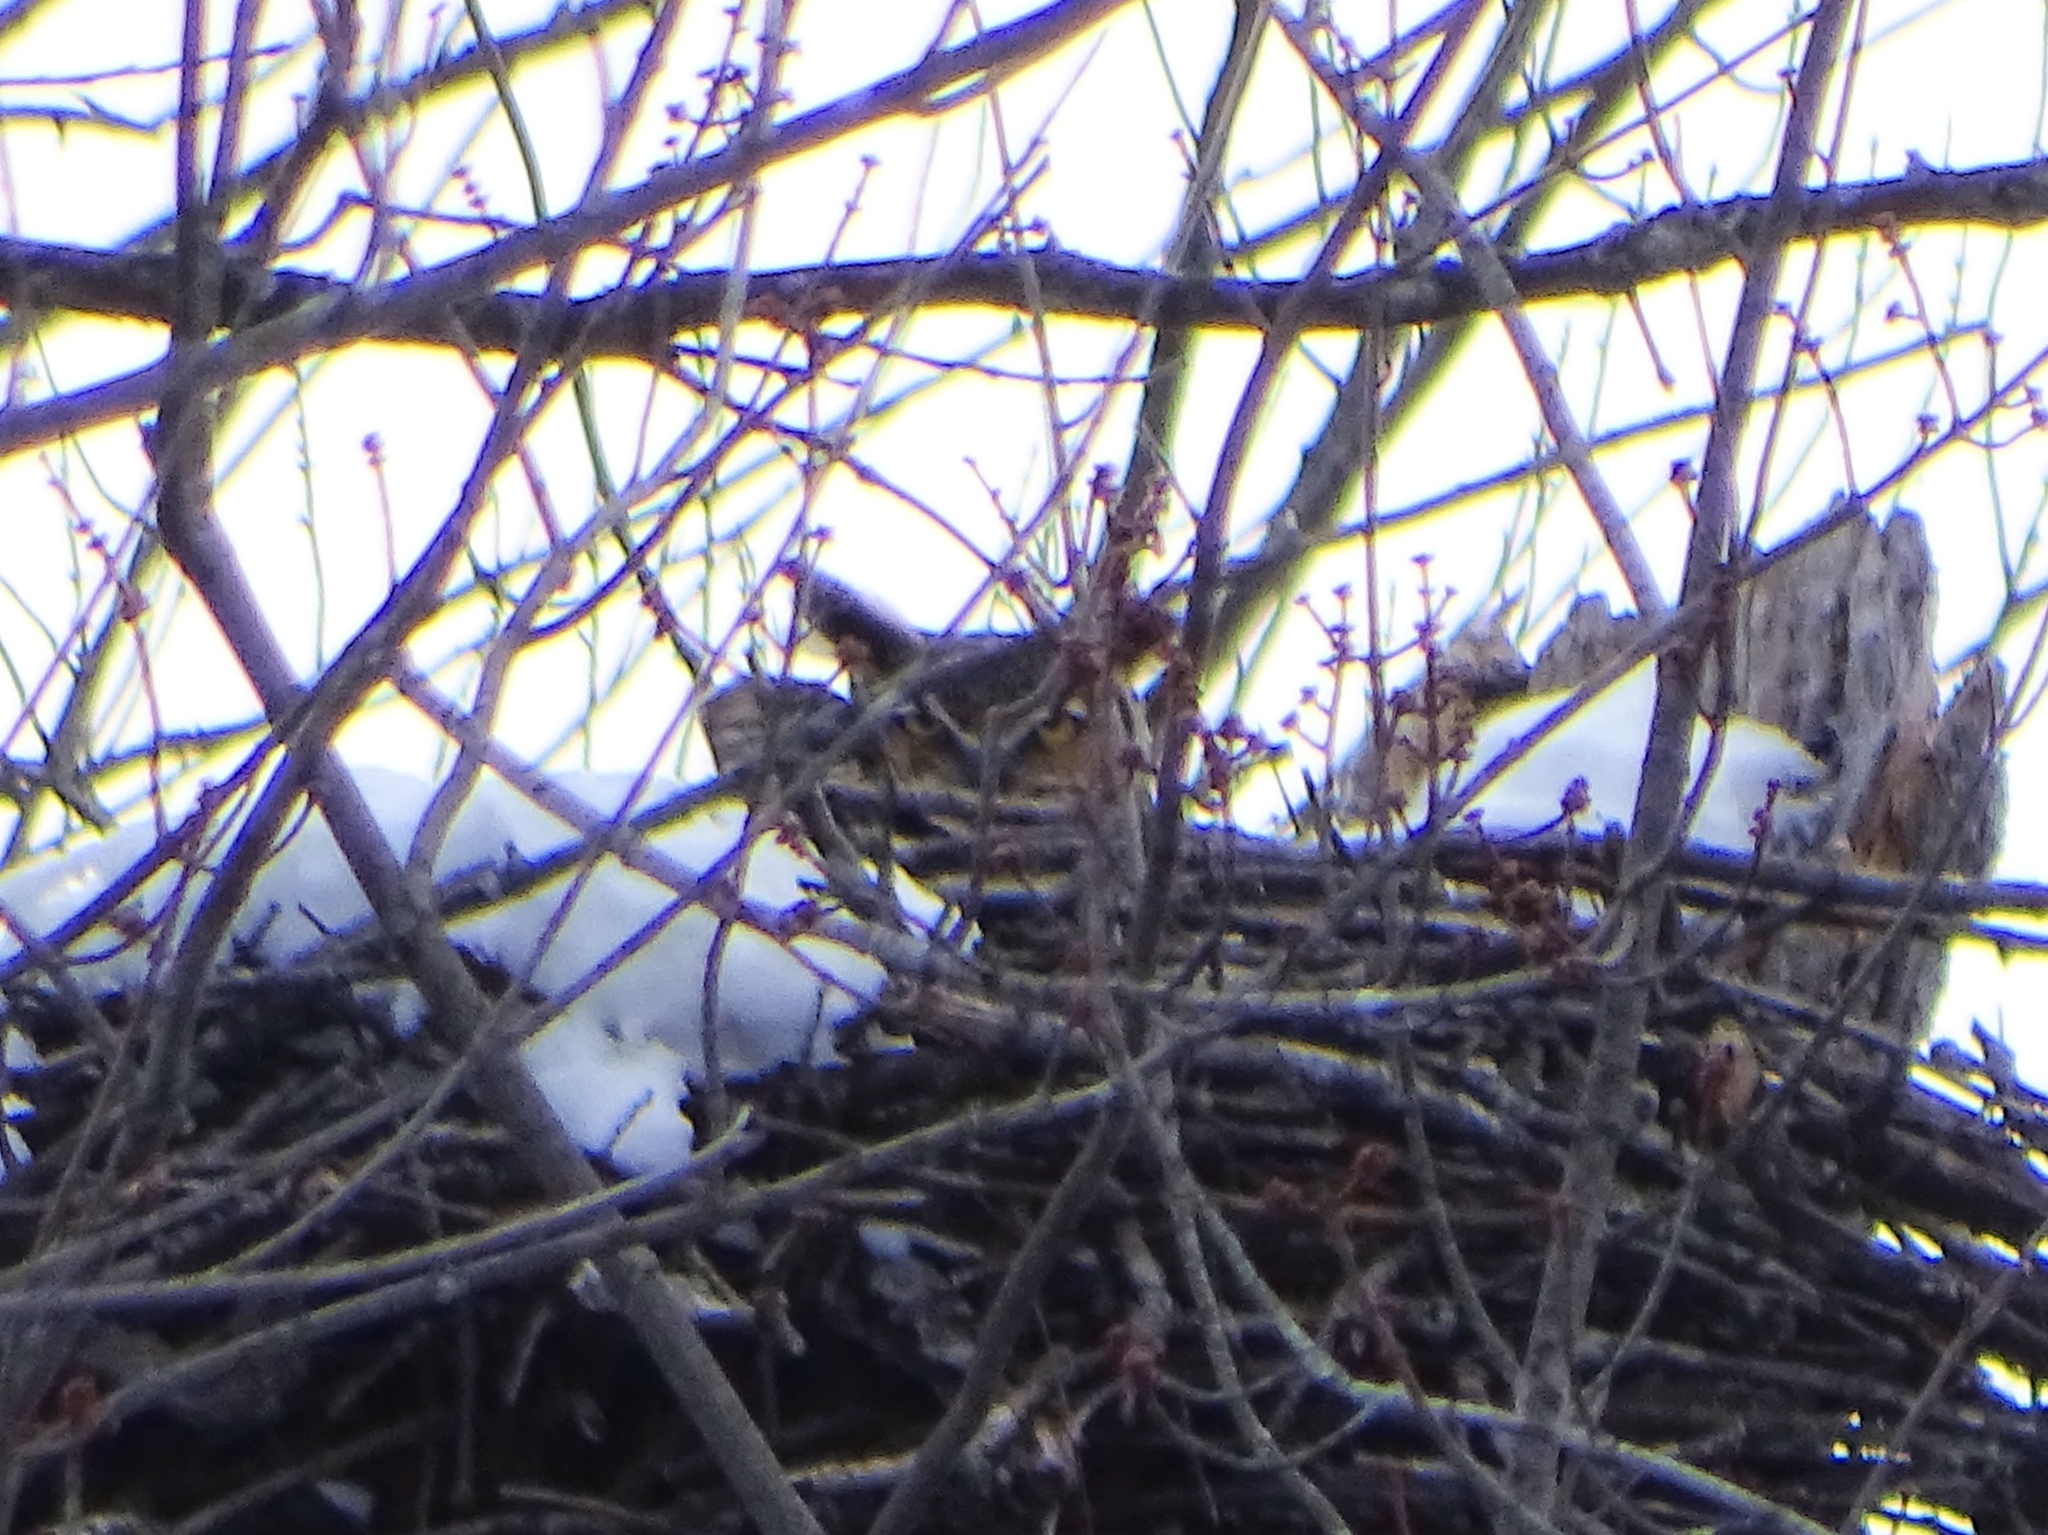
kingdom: Animalia
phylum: Chordata
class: Aves
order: Strigiformes
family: Strigidae
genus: Bubo
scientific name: Bubo virginianus
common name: Great horned owl
